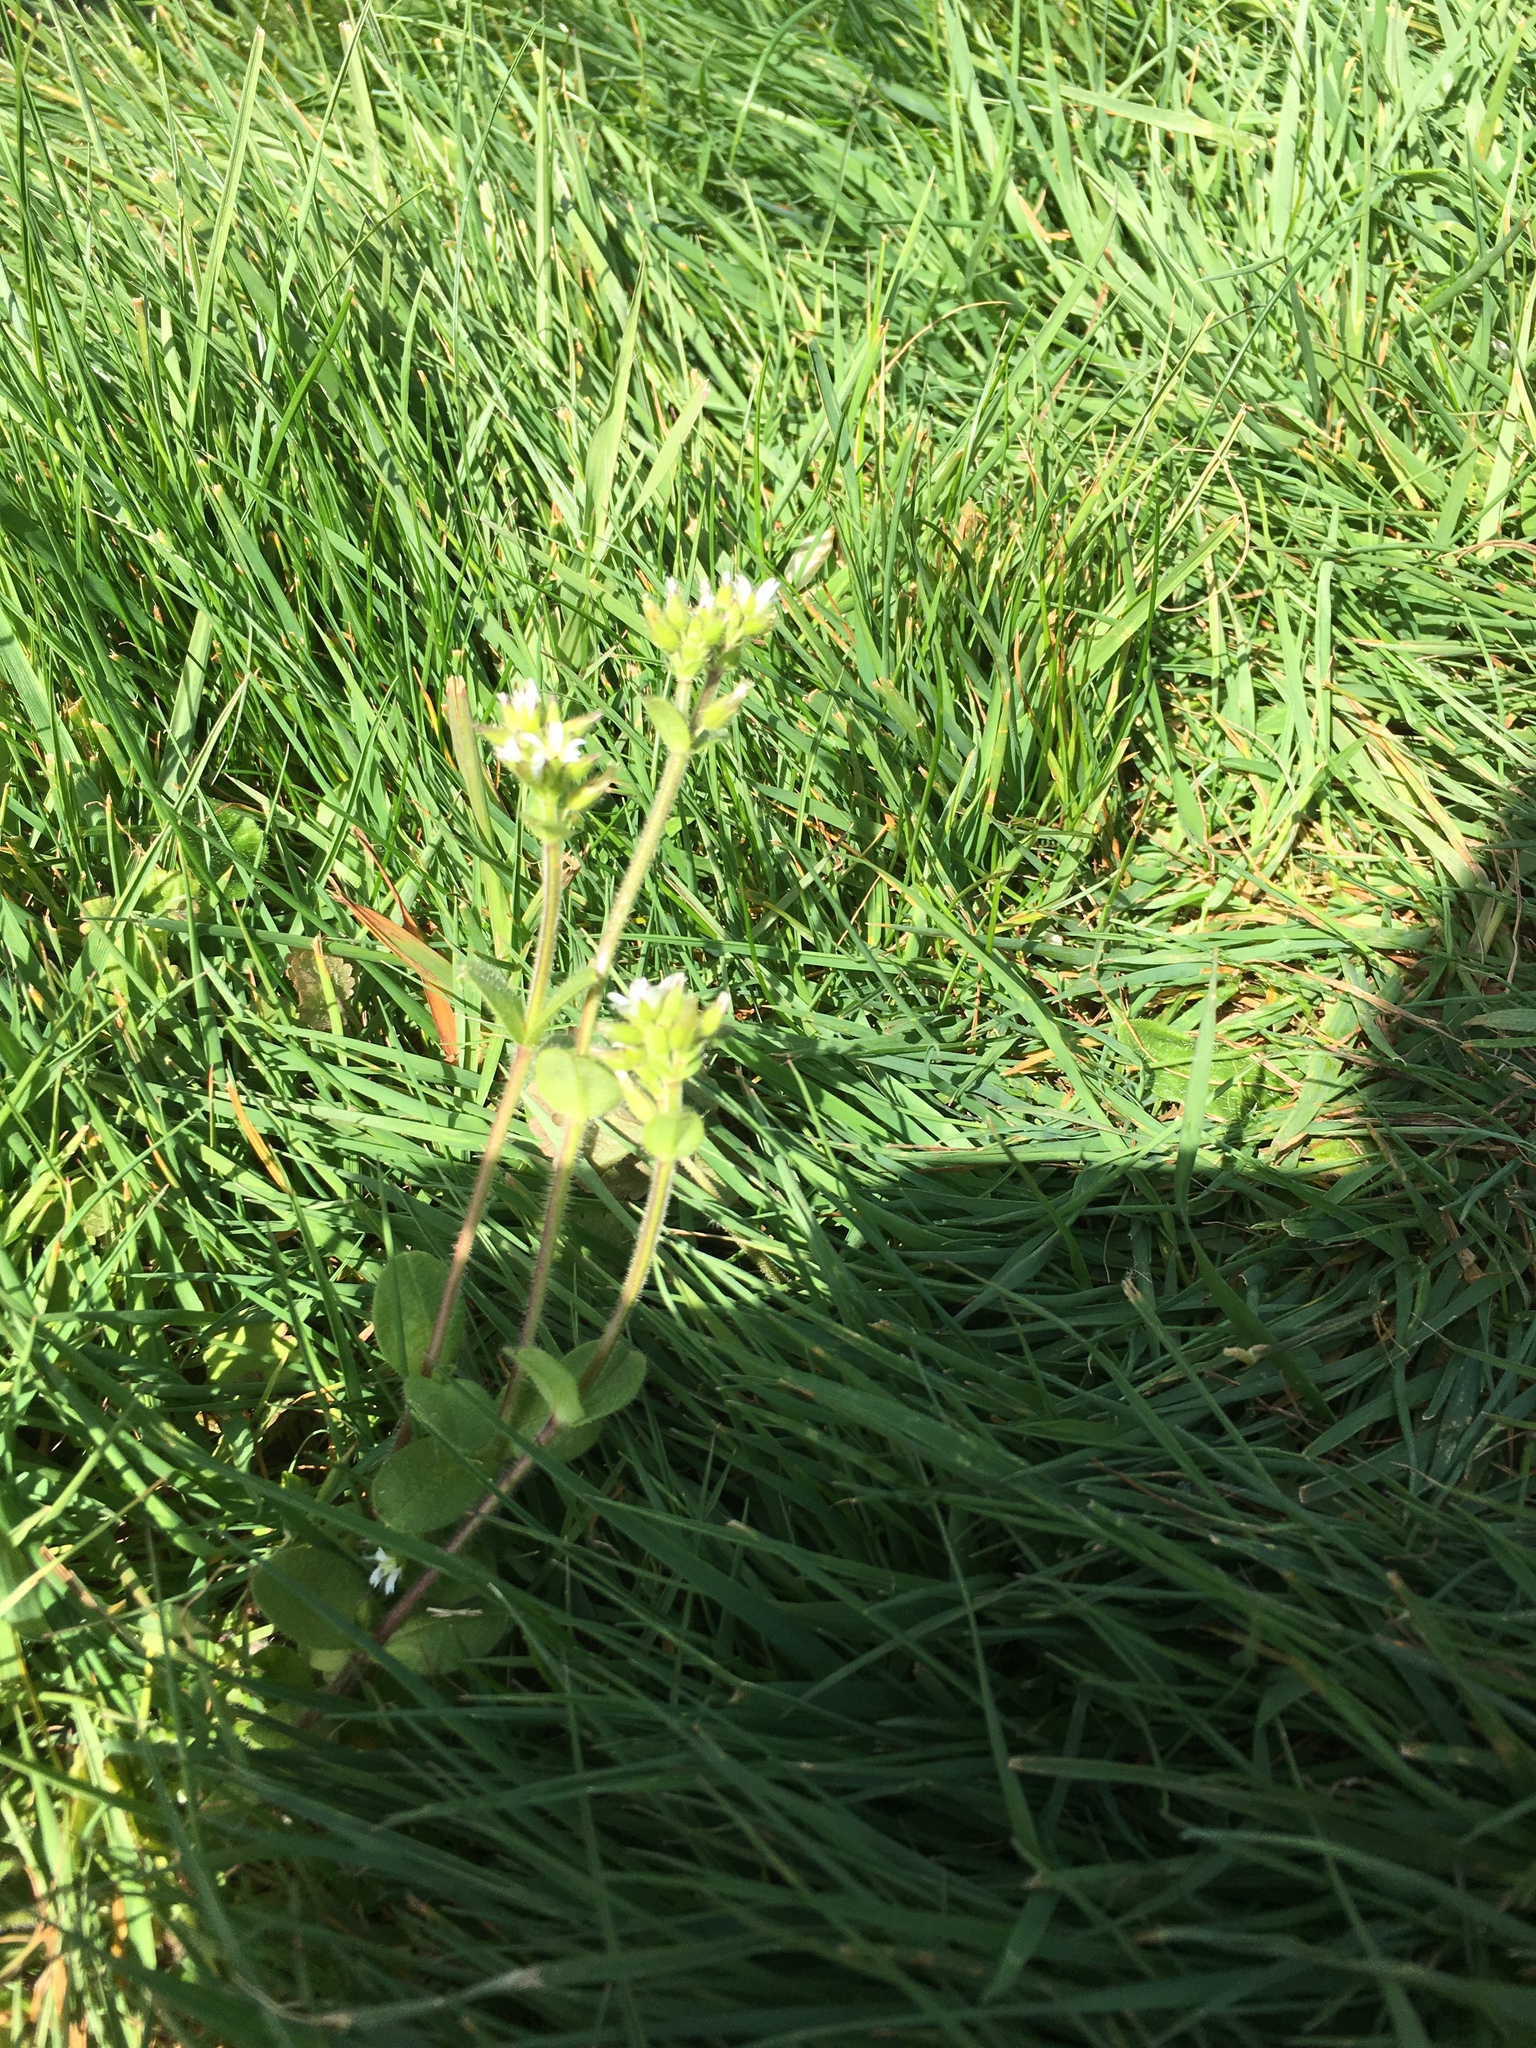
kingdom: Plantae
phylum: Tracheophyta
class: Magnoliopsida
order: Caryophyllales
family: Caryophyllaceae
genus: Cerastium
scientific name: Cerastium glomeratum
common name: Sticky chickweed
